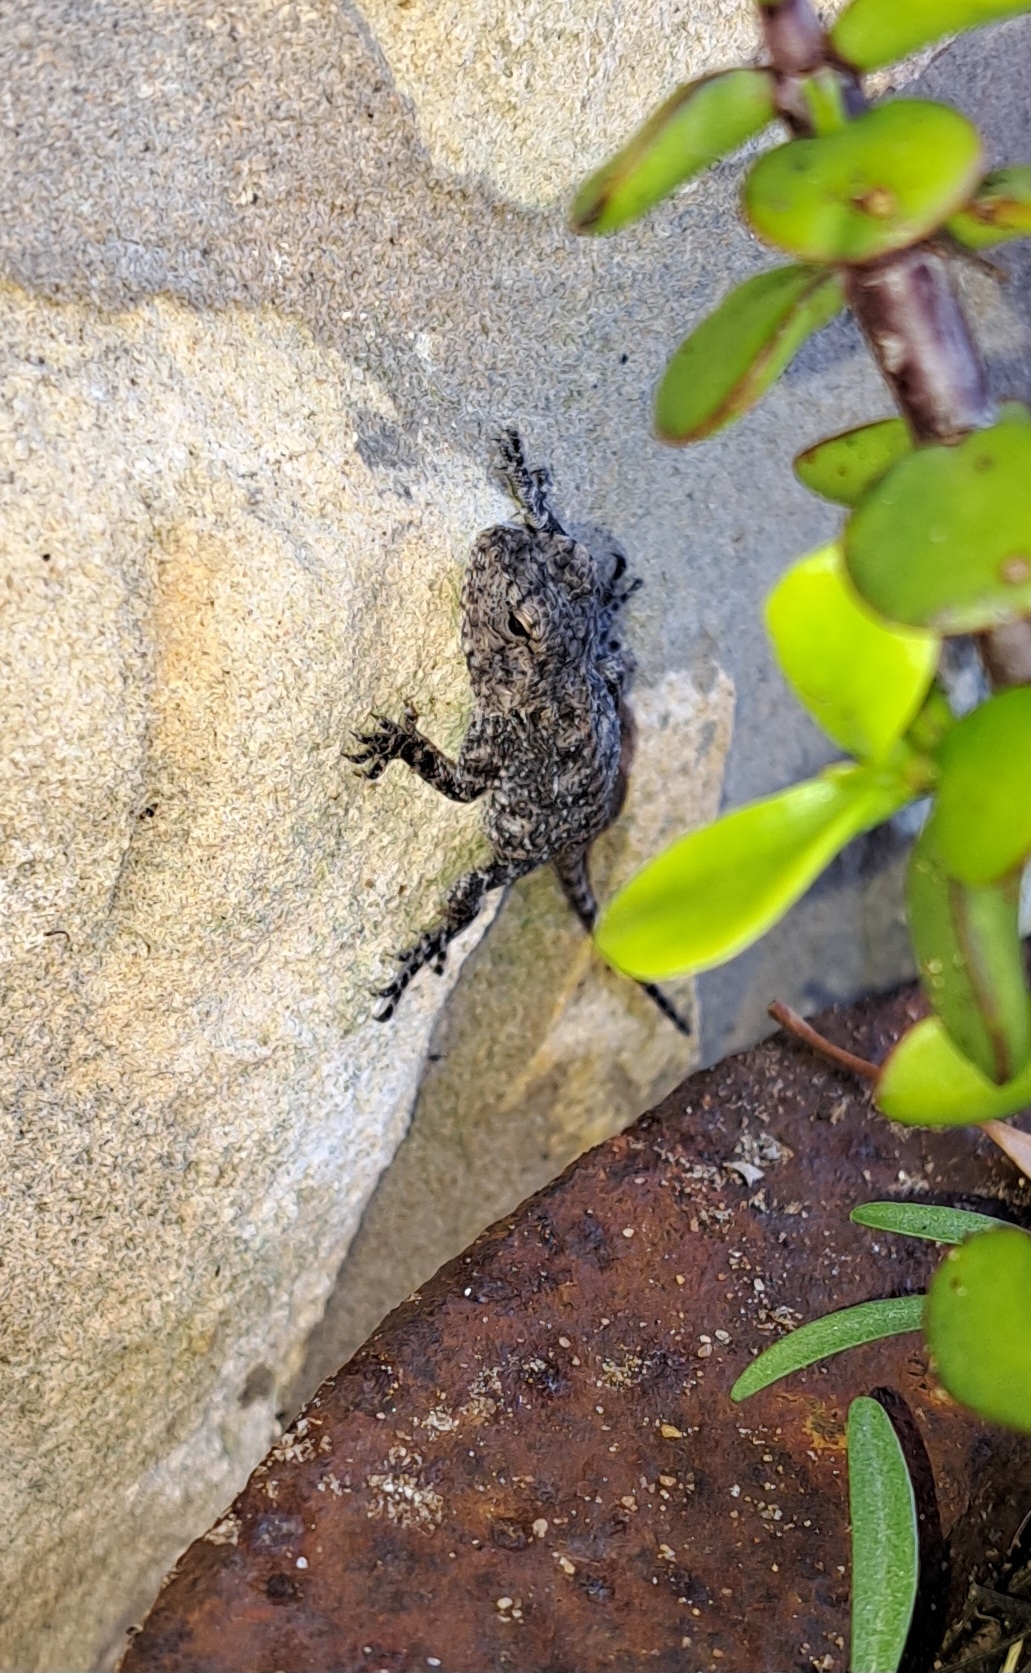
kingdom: Animalia
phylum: Chordata
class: Squamata
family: Agamidae
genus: Agama
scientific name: Agama atra
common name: Southern african rock agama
